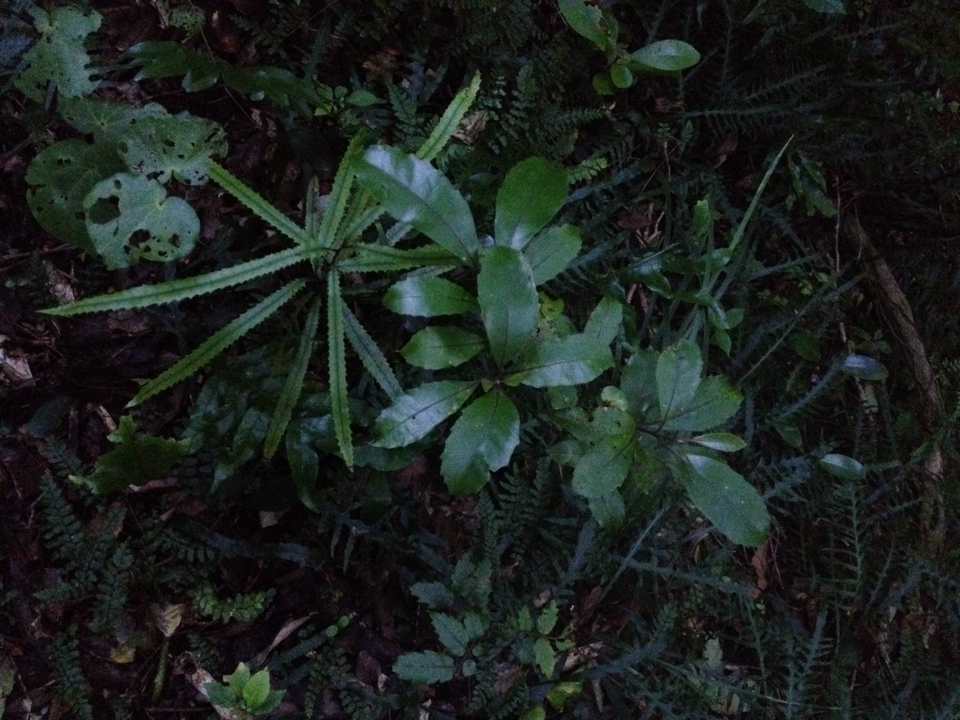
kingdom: Plantae
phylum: Tracheophyta
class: Magnoliopsida
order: Laurales
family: Monimiaceae
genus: Hedycarya
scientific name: Hedycarya arborea
